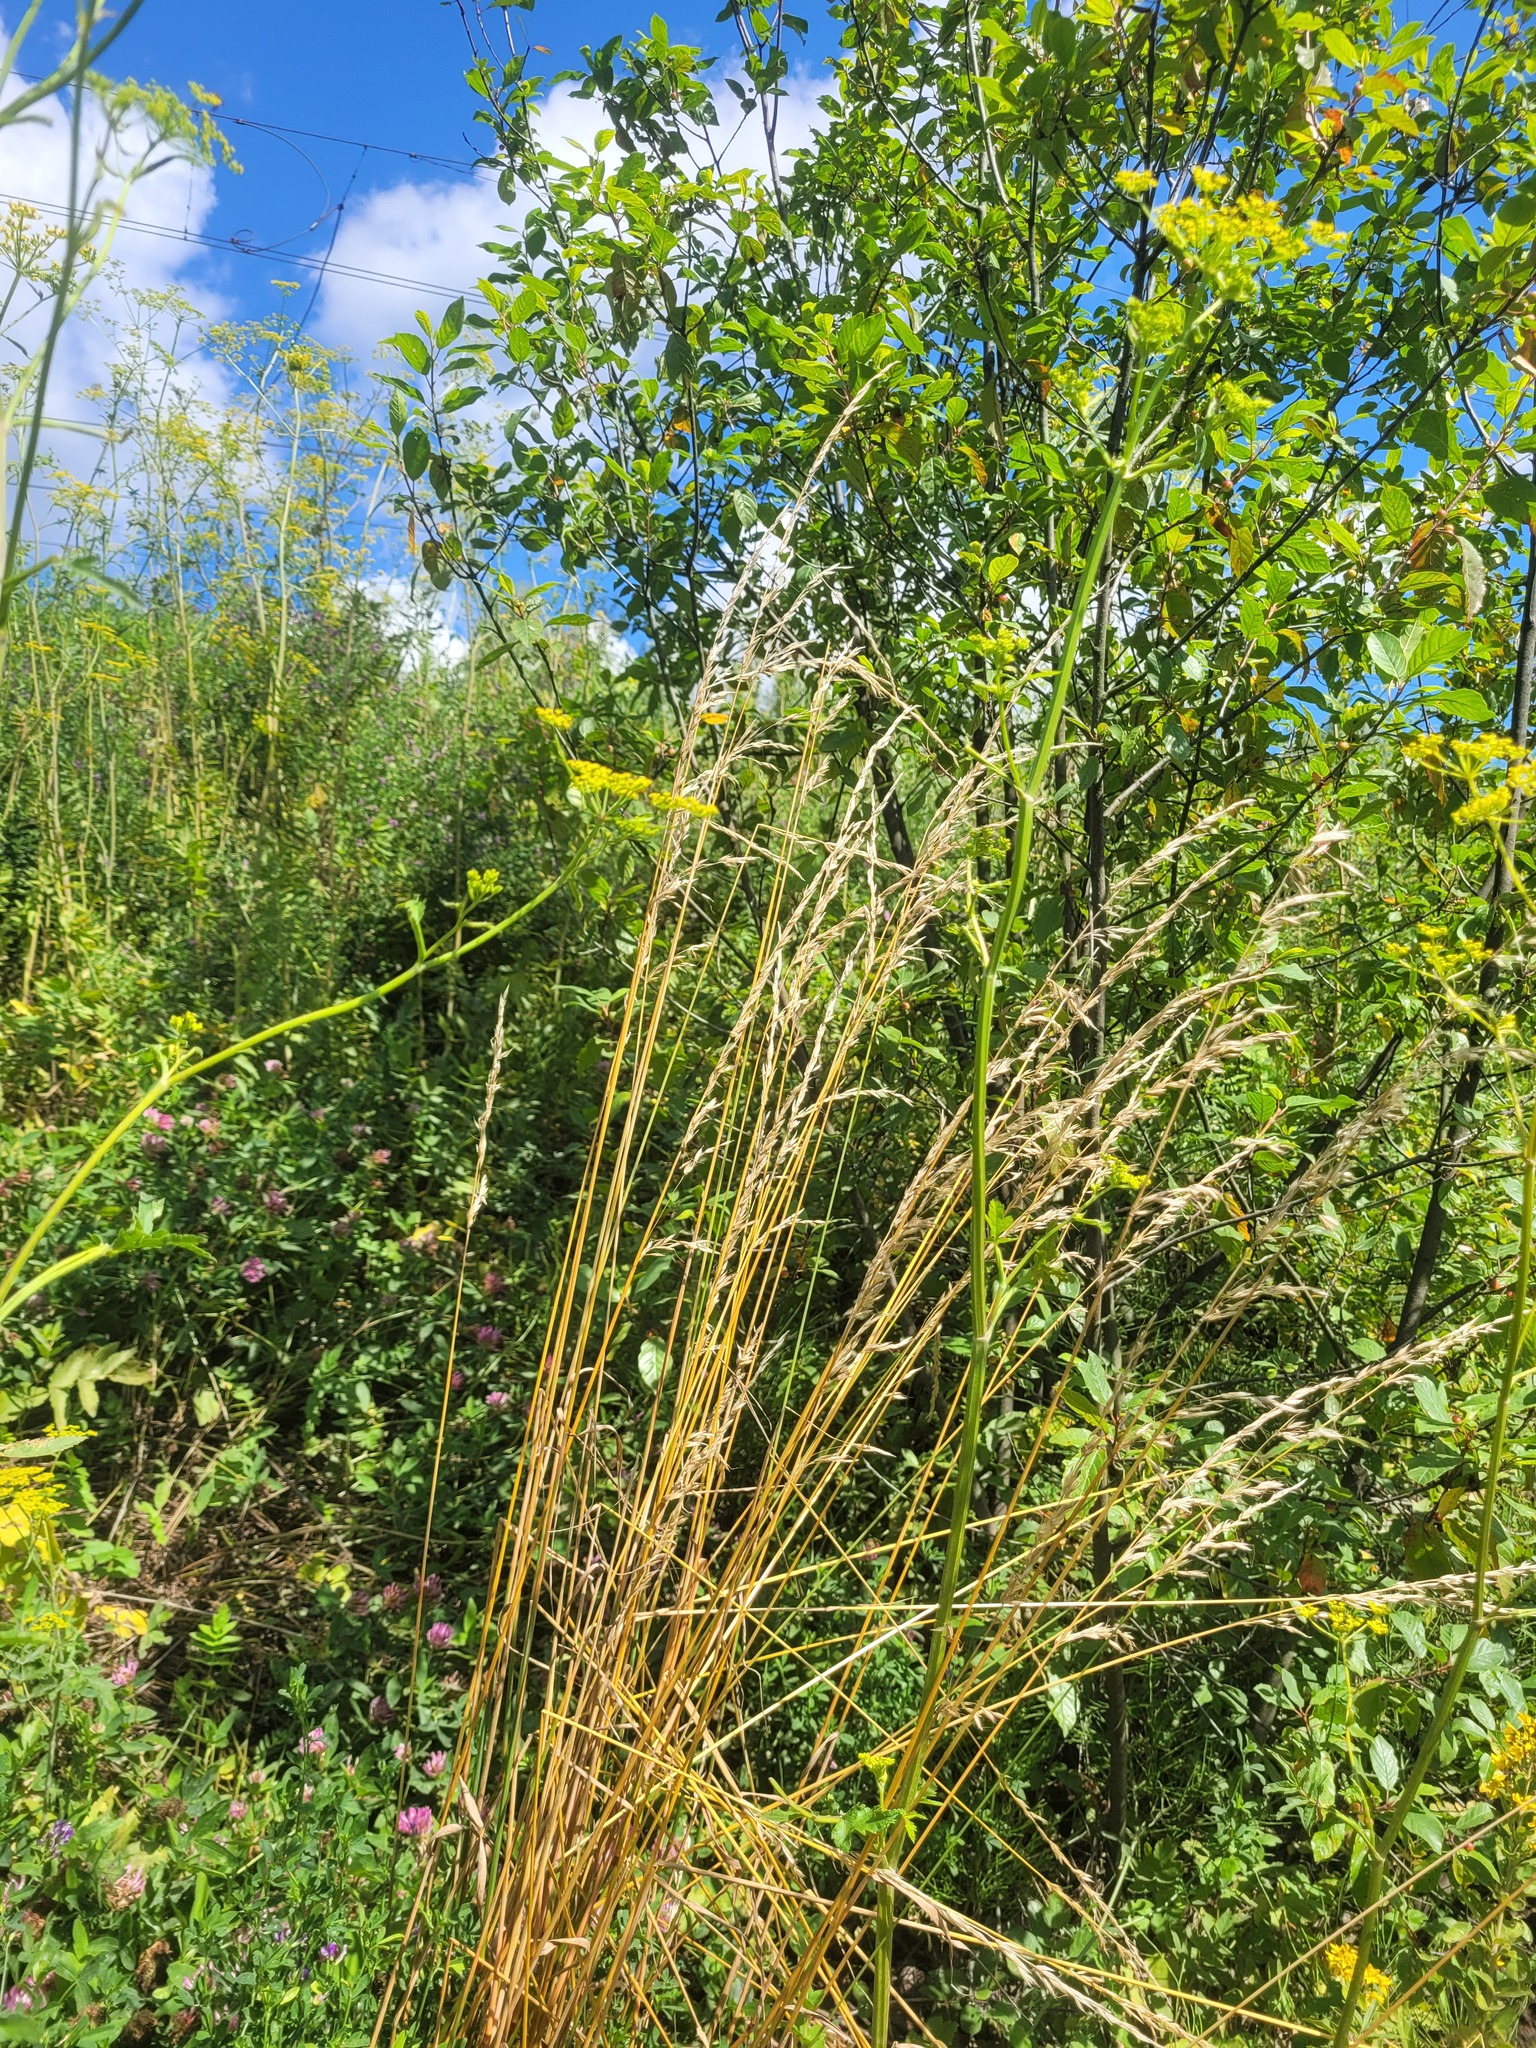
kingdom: Plantae
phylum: Tracheophyta
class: Liliopsida
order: Poales
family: Poaceae
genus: Arrhenatherum
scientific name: Arrhenatherum elatius
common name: Tall oatgrass
